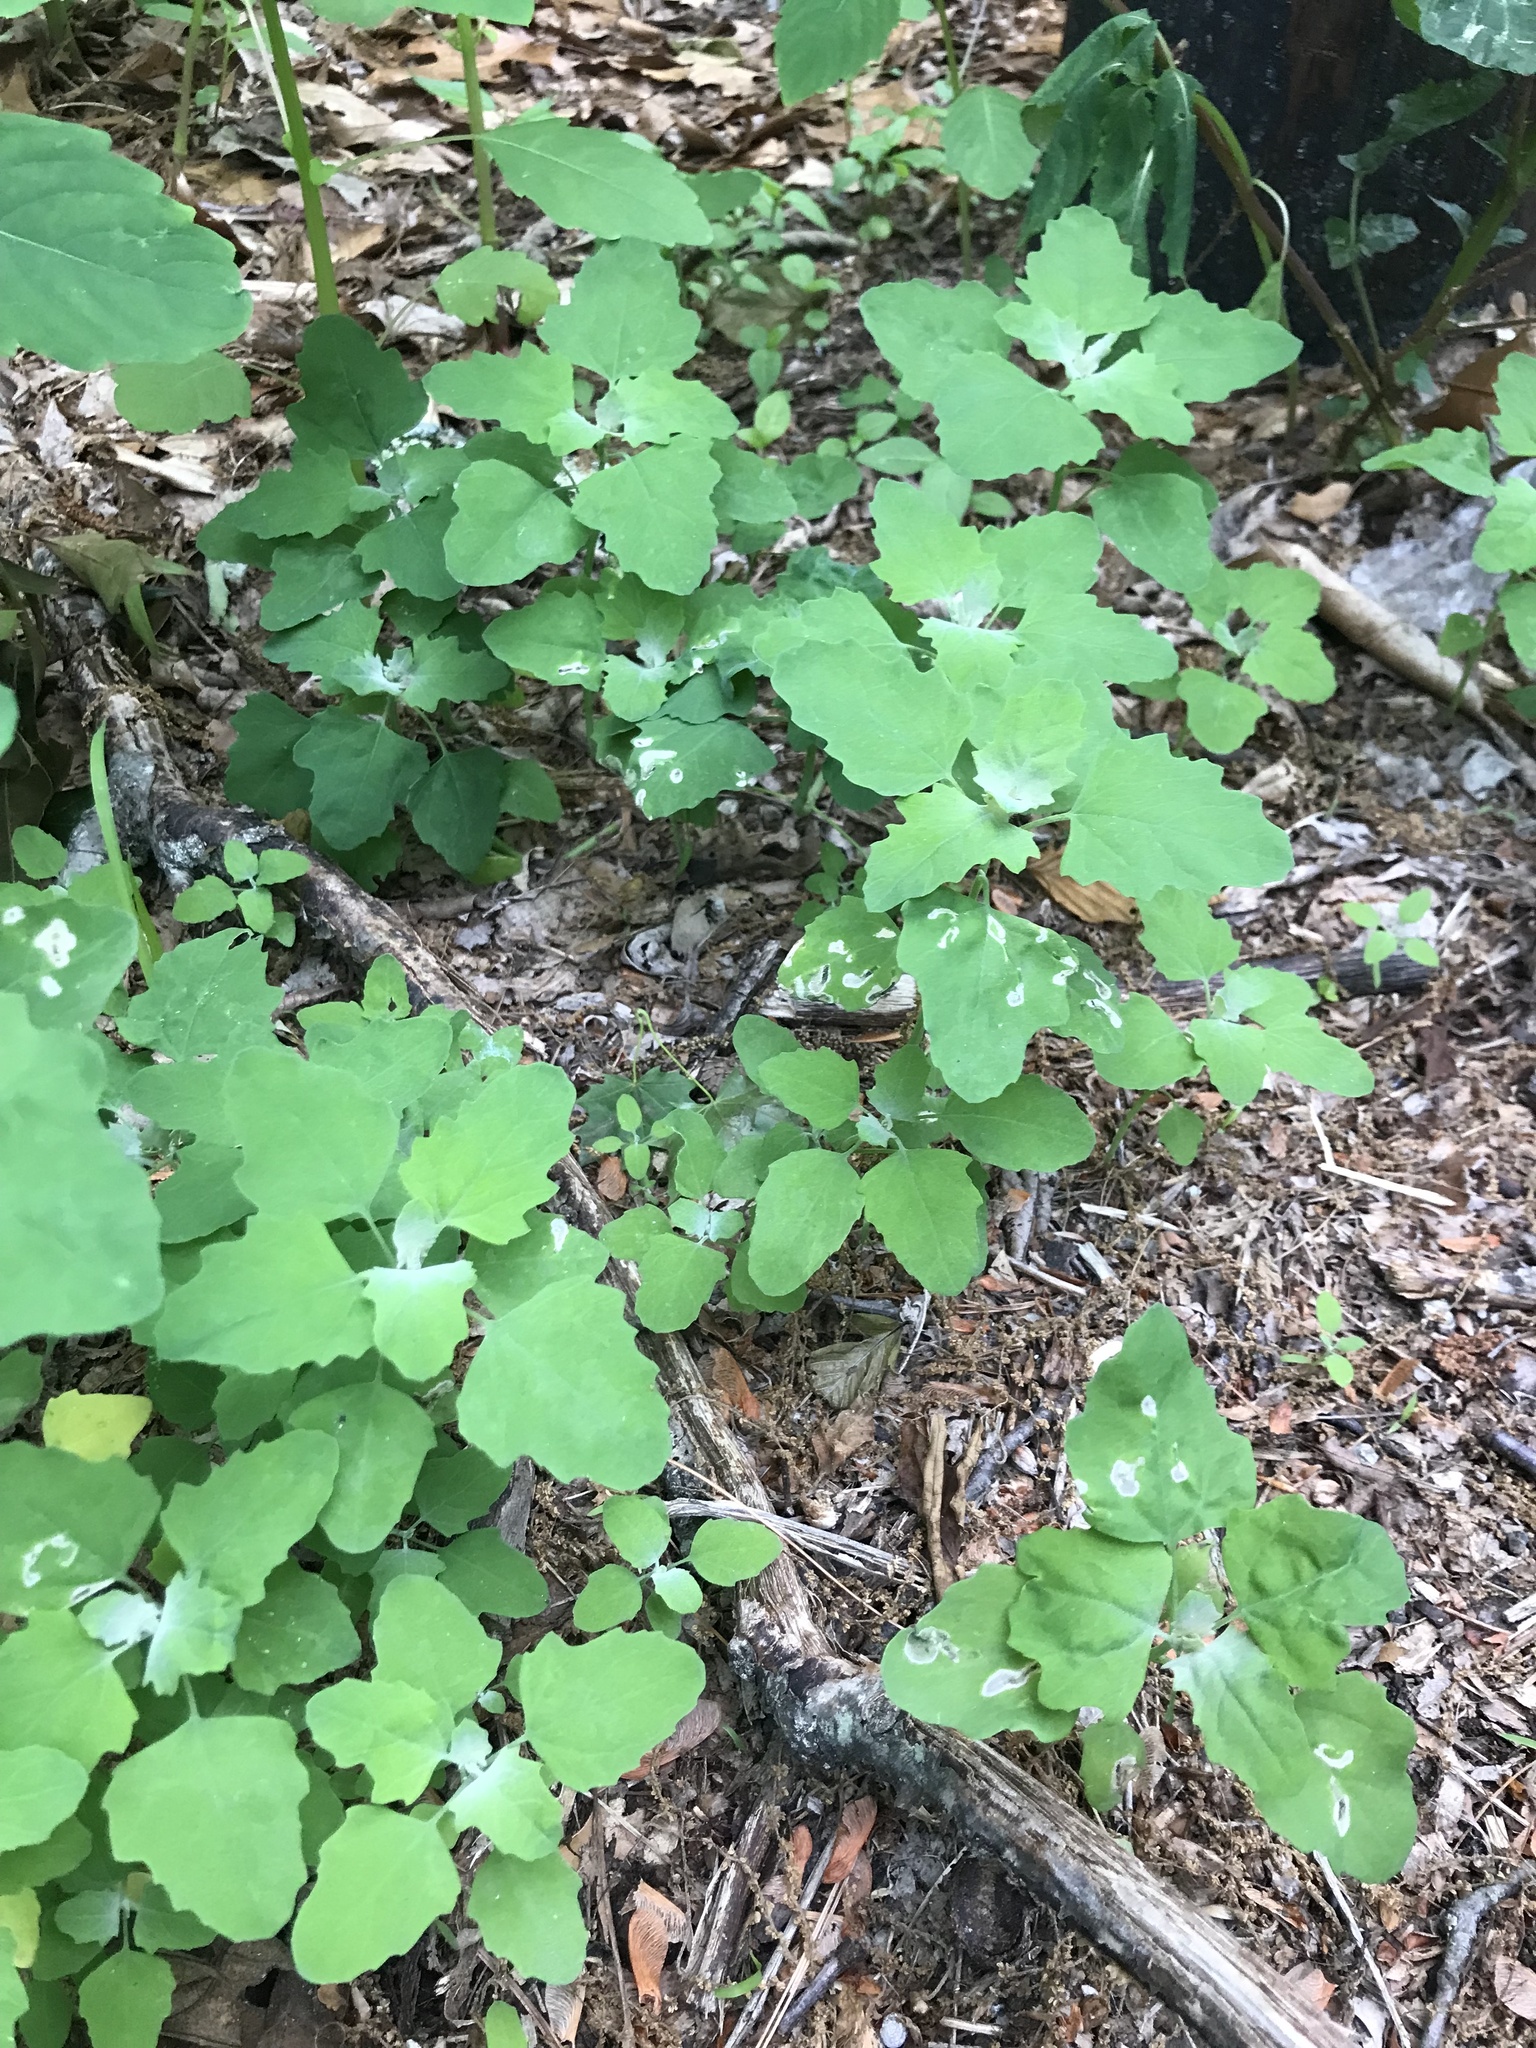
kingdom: Animalia
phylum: Arthropoda
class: Insecta
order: Lepidoptera
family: Gelechiidae
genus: Chrysoesthia
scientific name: Chrysoesthia sexguttella
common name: Moth
